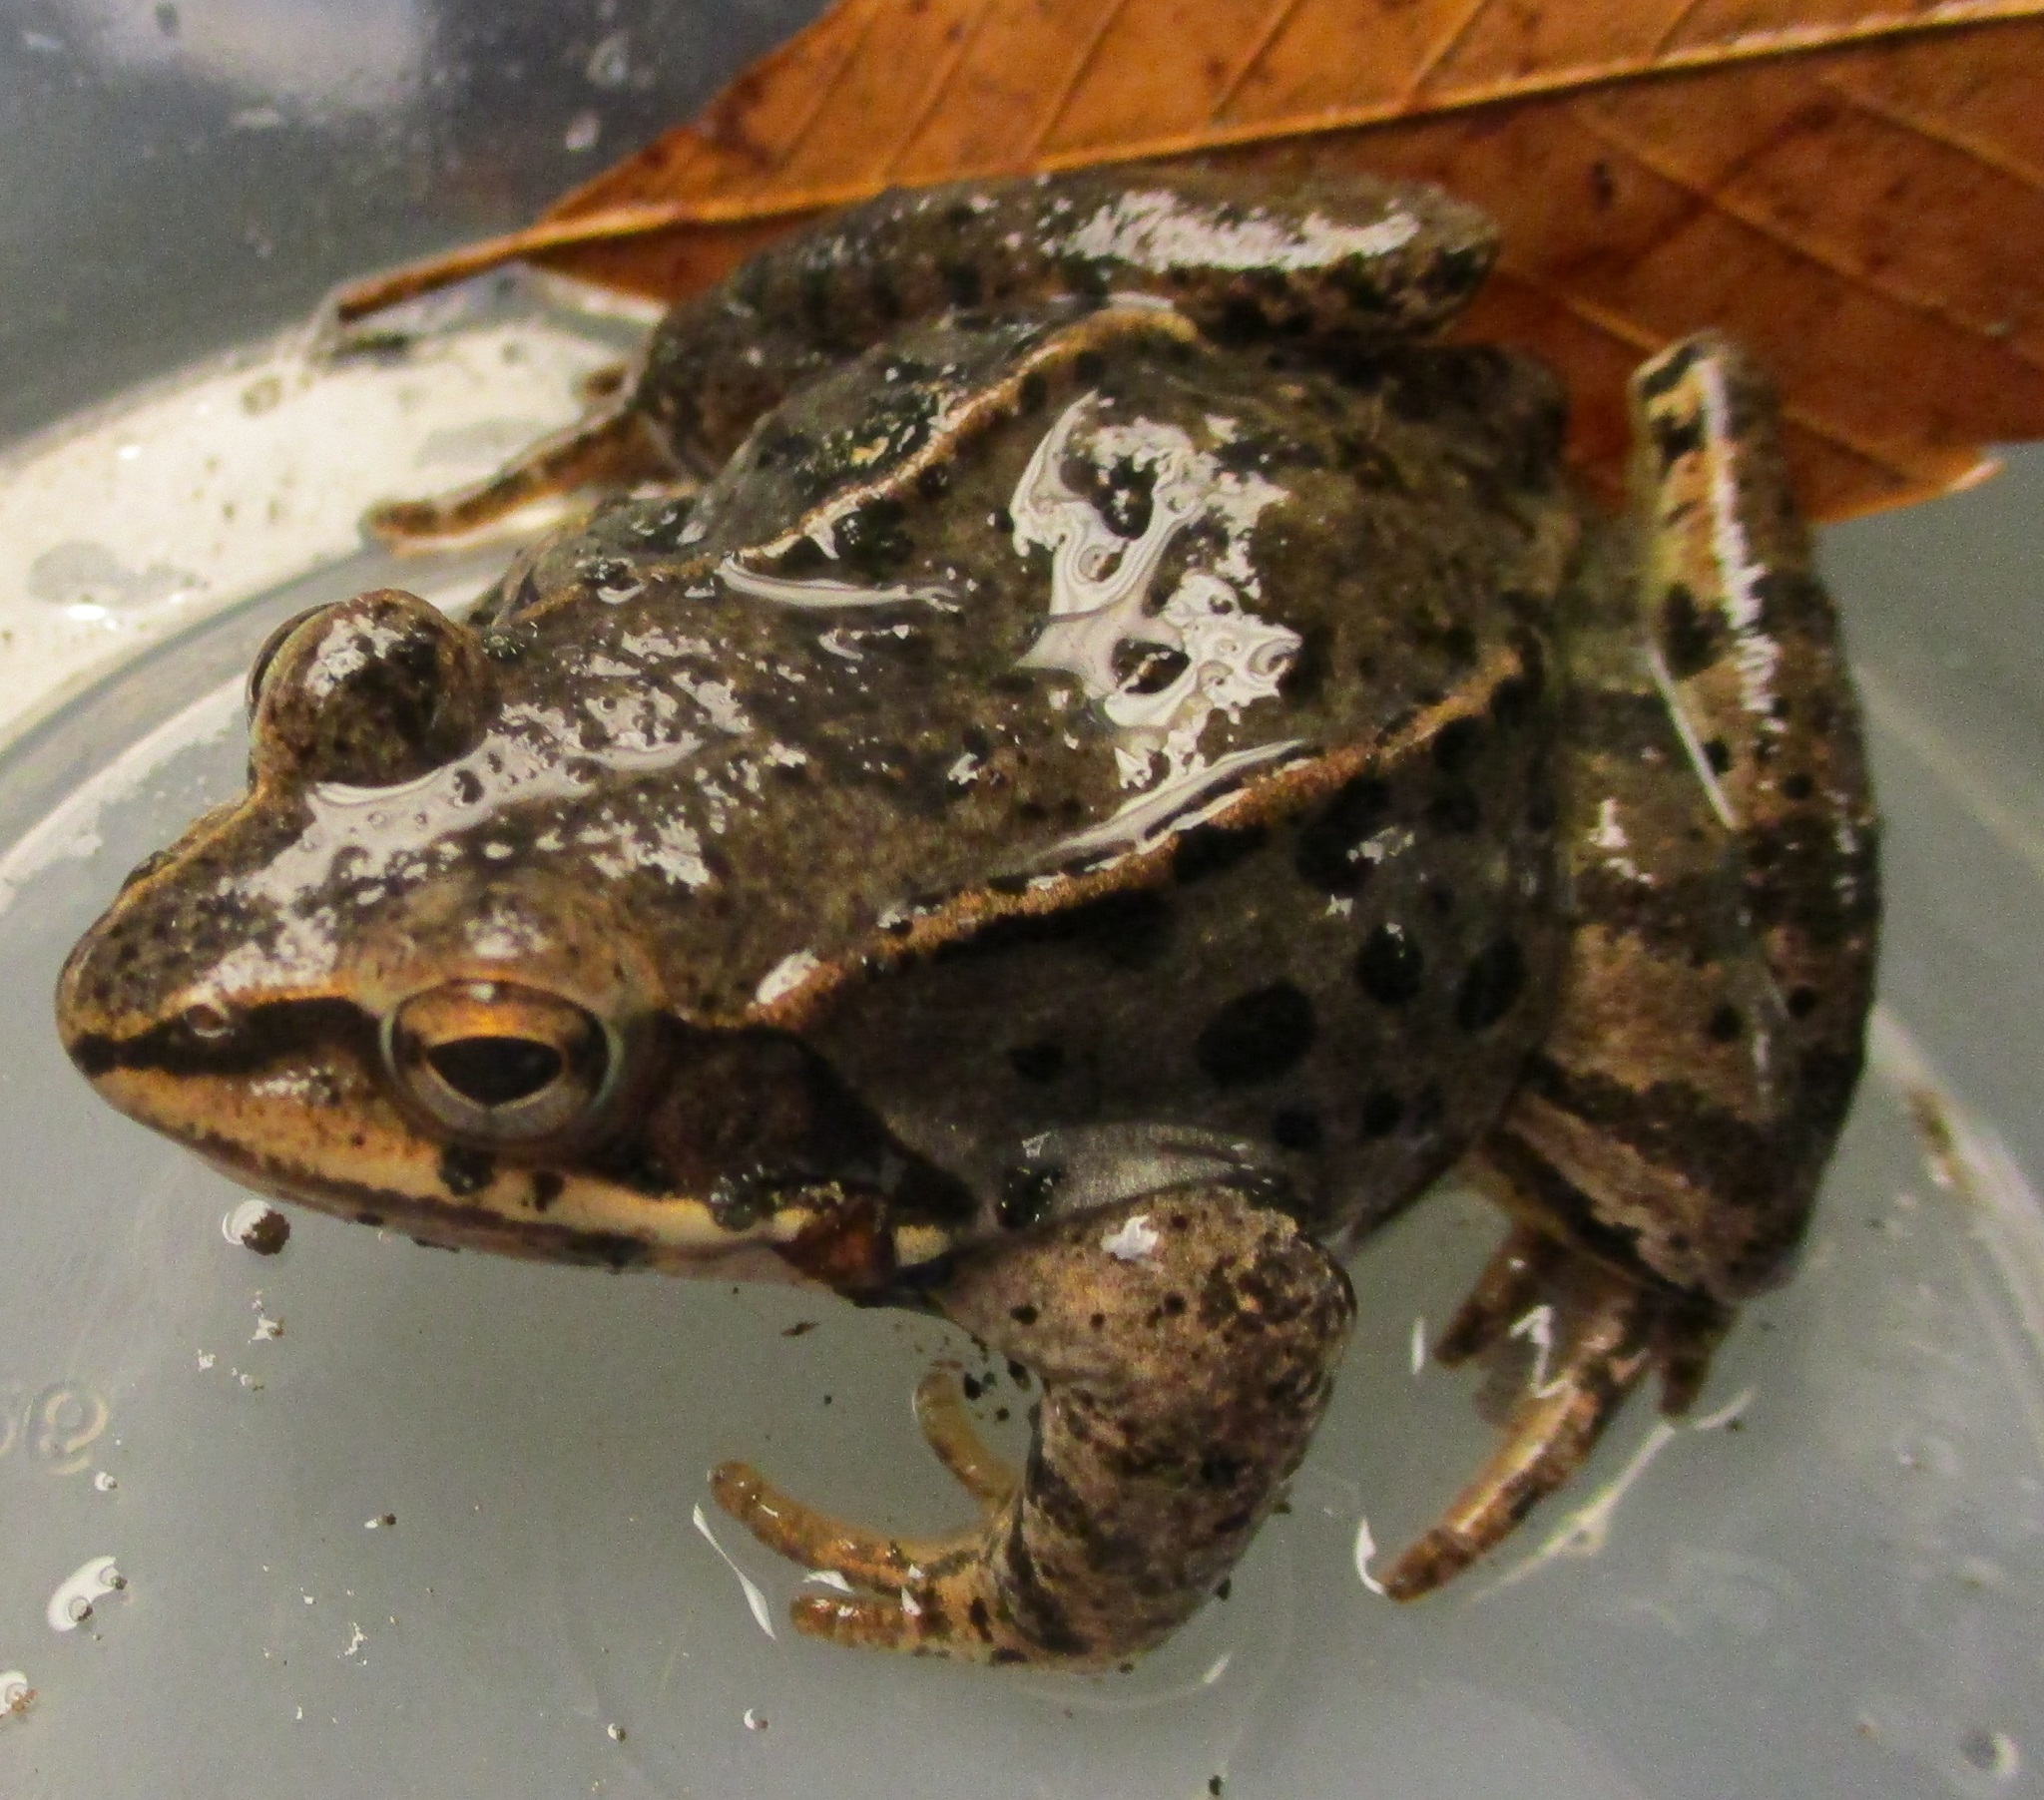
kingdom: Animalia
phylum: Chordata
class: Amphibia
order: Anura
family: Ranidae
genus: Lithobates
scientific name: Lithobates sylvaticus
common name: Wood frog
